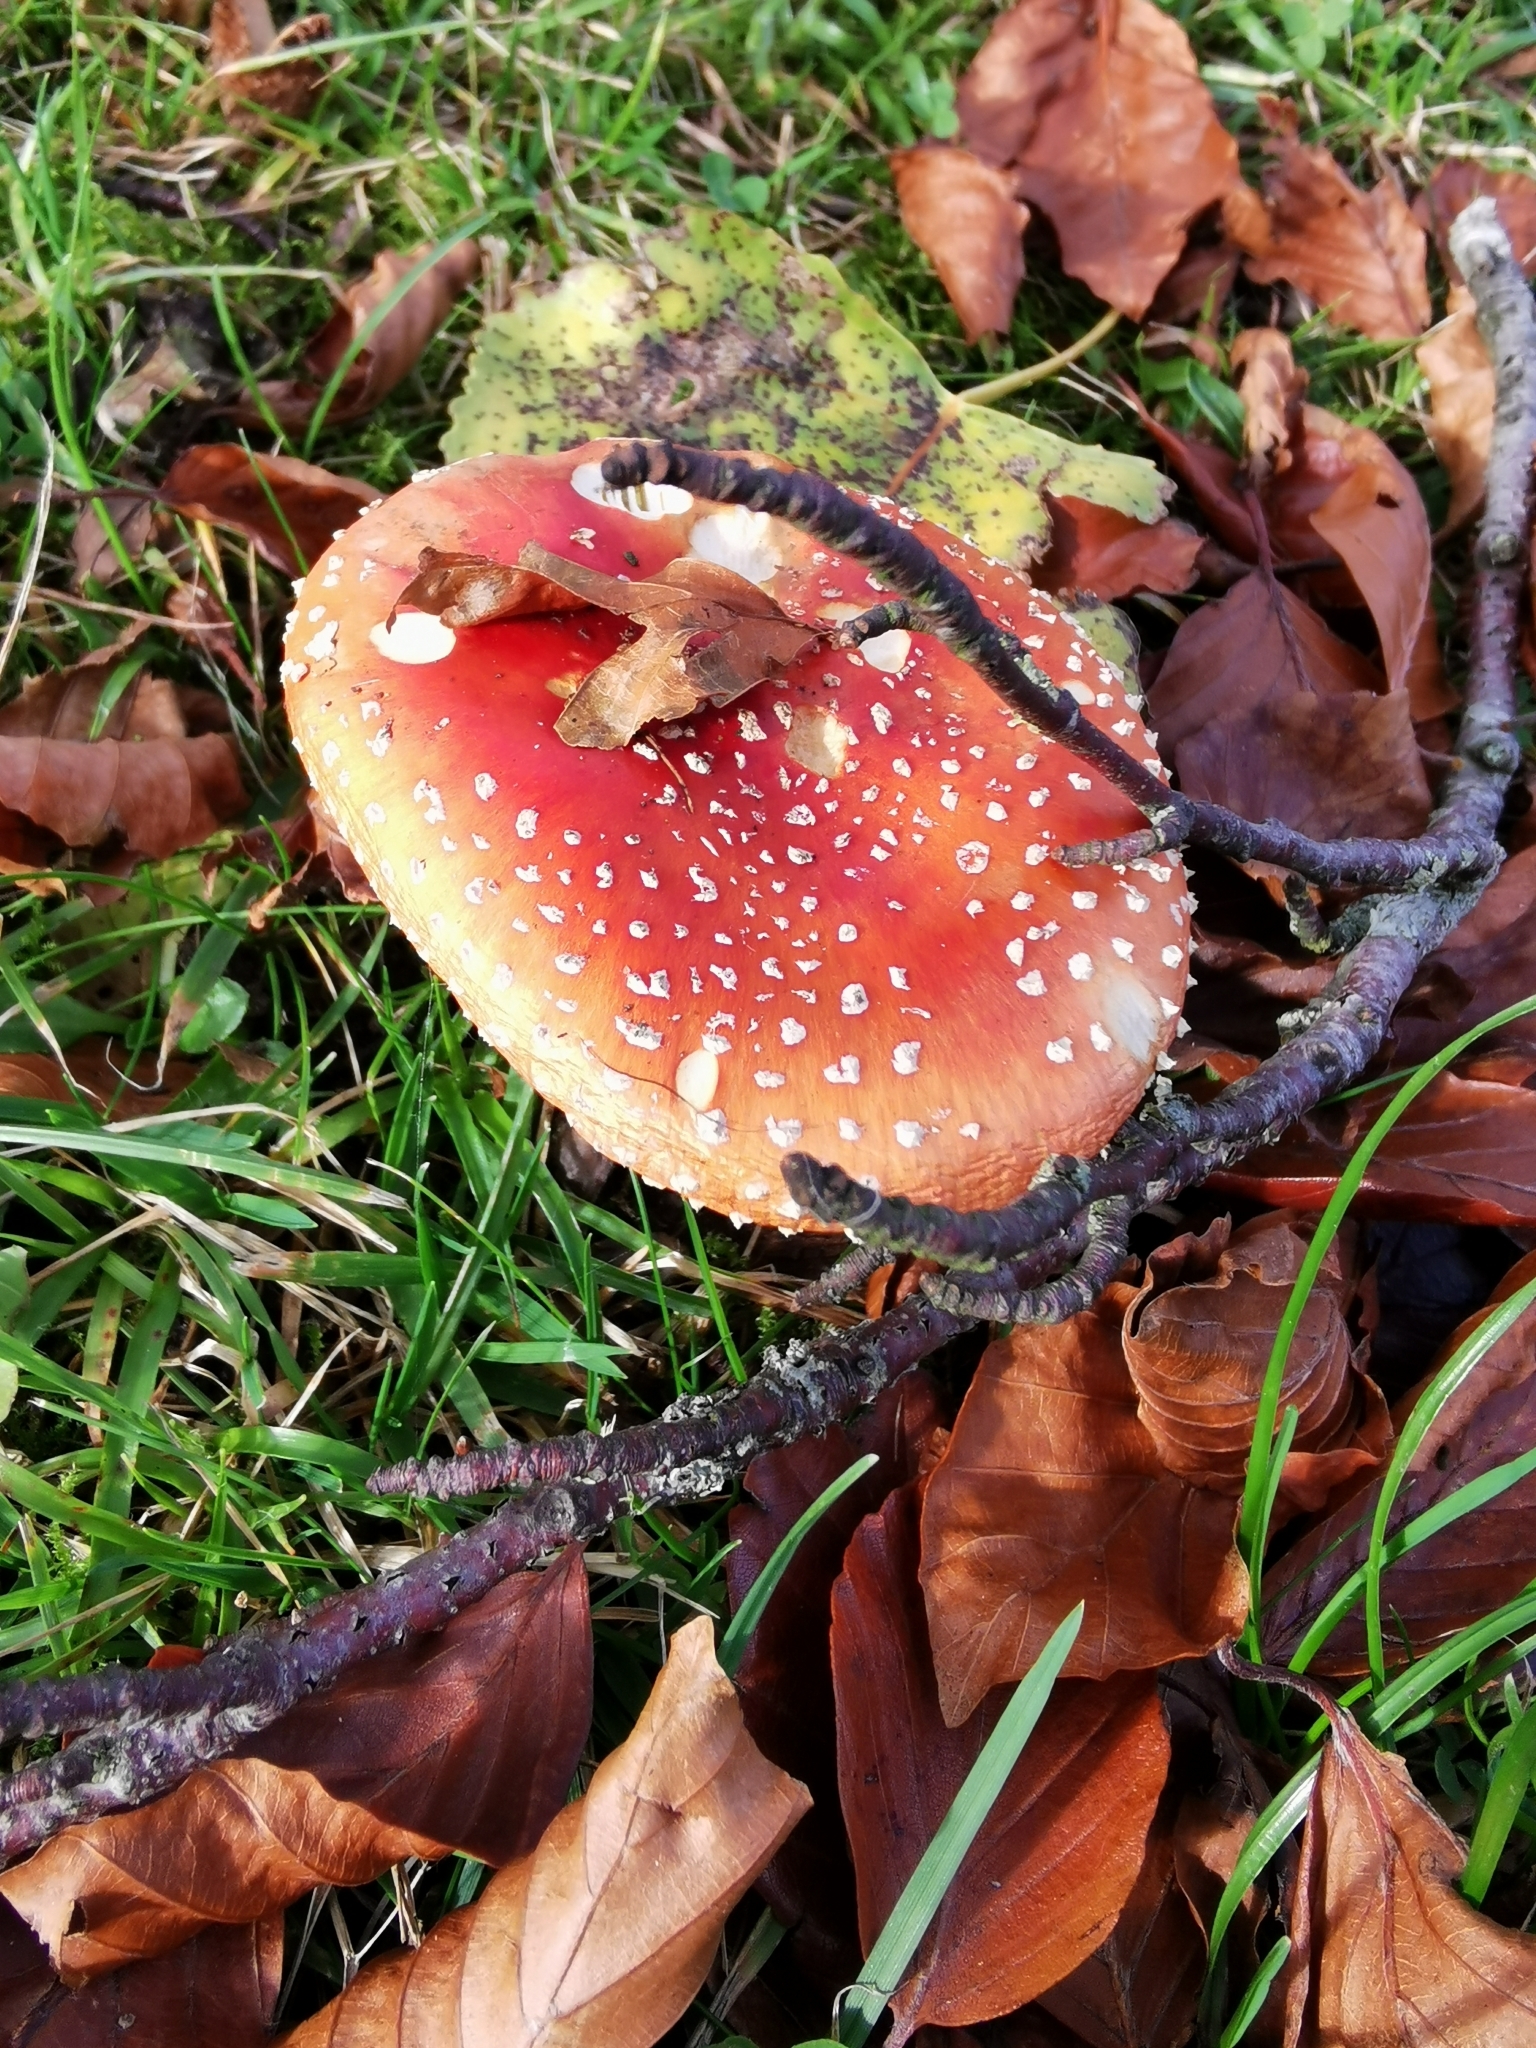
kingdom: Fungi
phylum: Basidiomycota
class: Agaricomycetes
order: Agaricales
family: Amanitaceae
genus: Amanita
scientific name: Amanita muscaria
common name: Fly agaric
